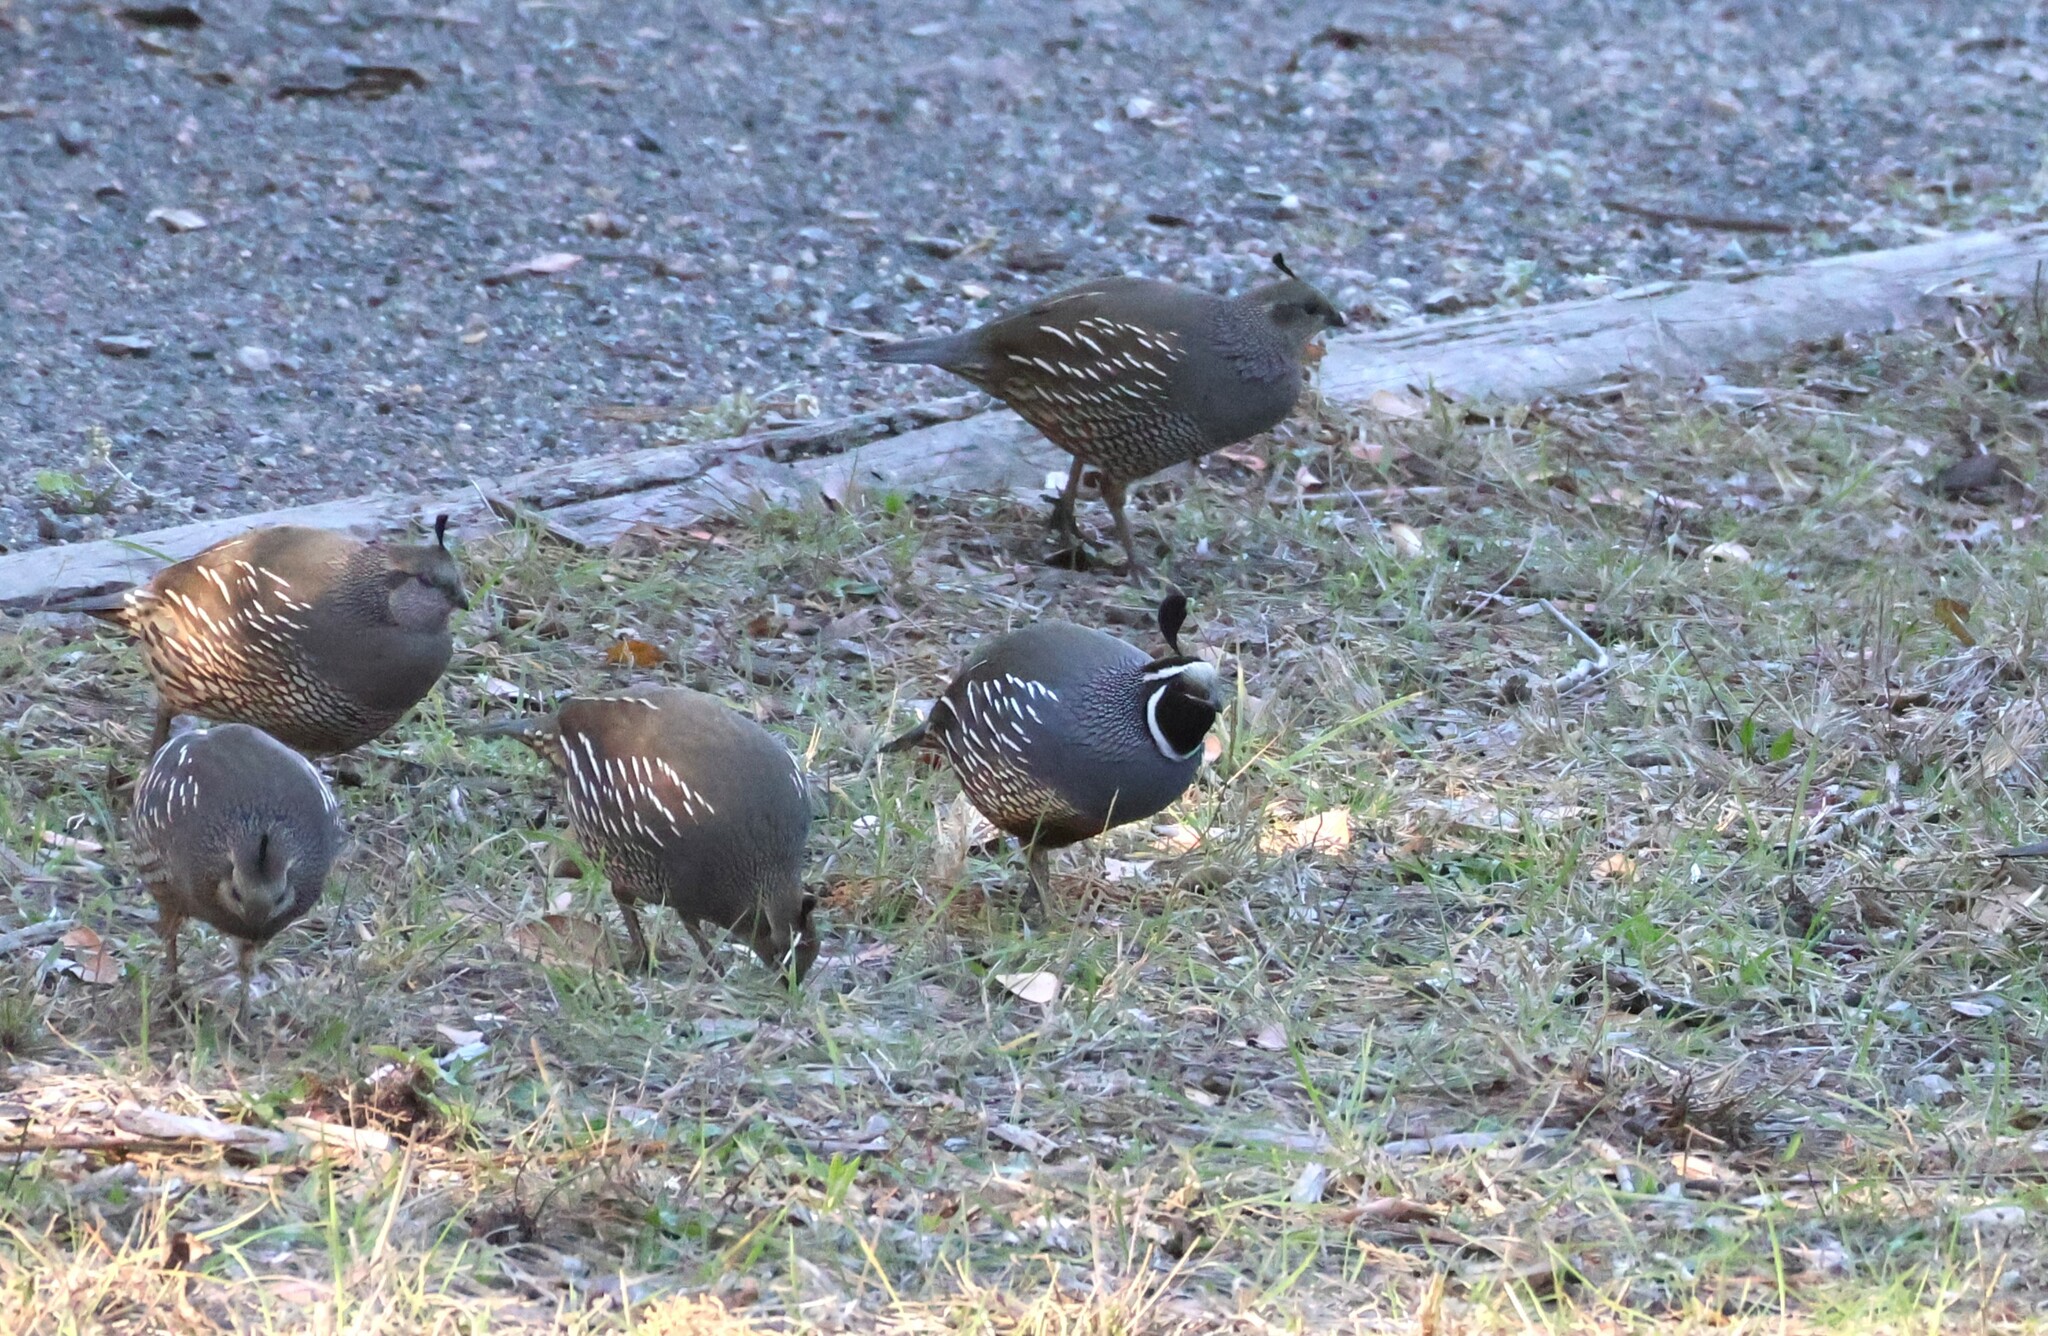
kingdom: Animalia
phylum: Chordata
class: Aves
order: Galliformes
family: Odontophoridae
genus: Callipepla
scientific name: Callipepla californica
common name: California quail
